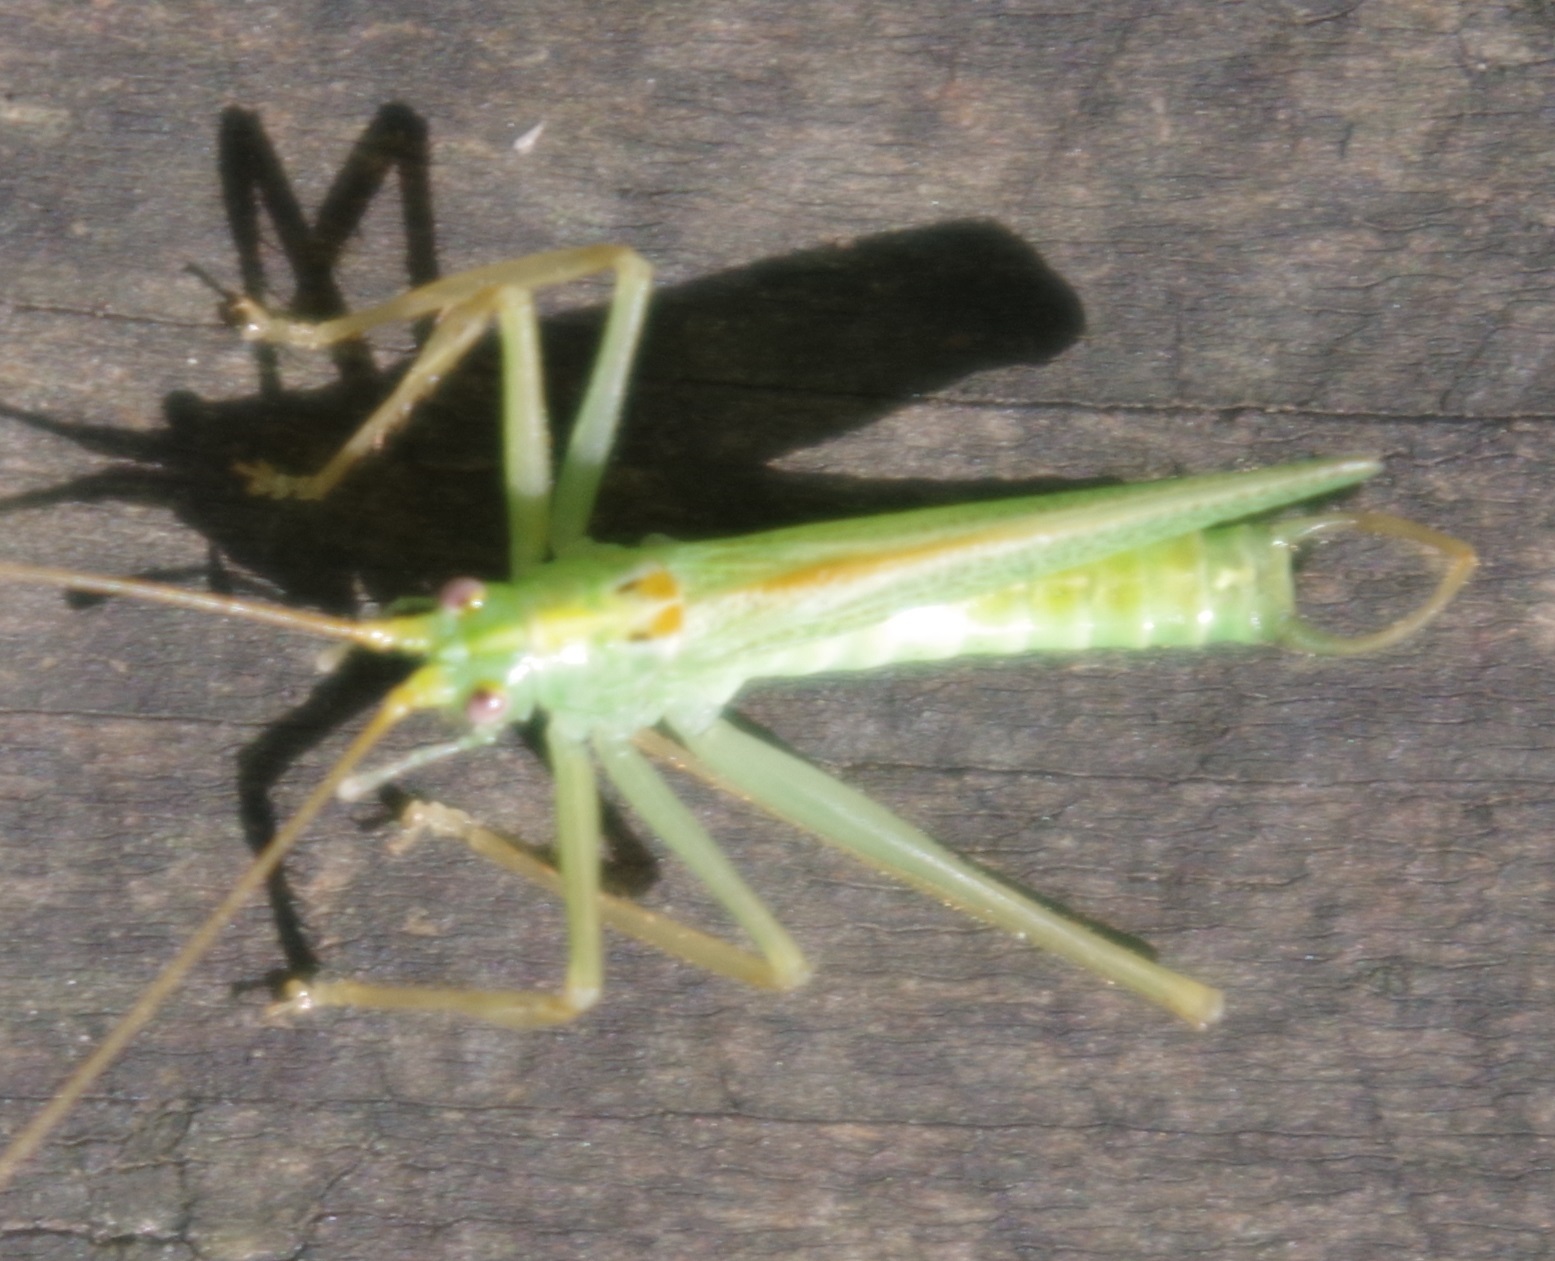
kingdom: Animalia
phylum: Arthropoda
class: Insecta
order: Orthoptera
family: Tettigoniidae
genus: Meconema
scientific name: Meconema thalassinum
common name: Oak bush-cricket
